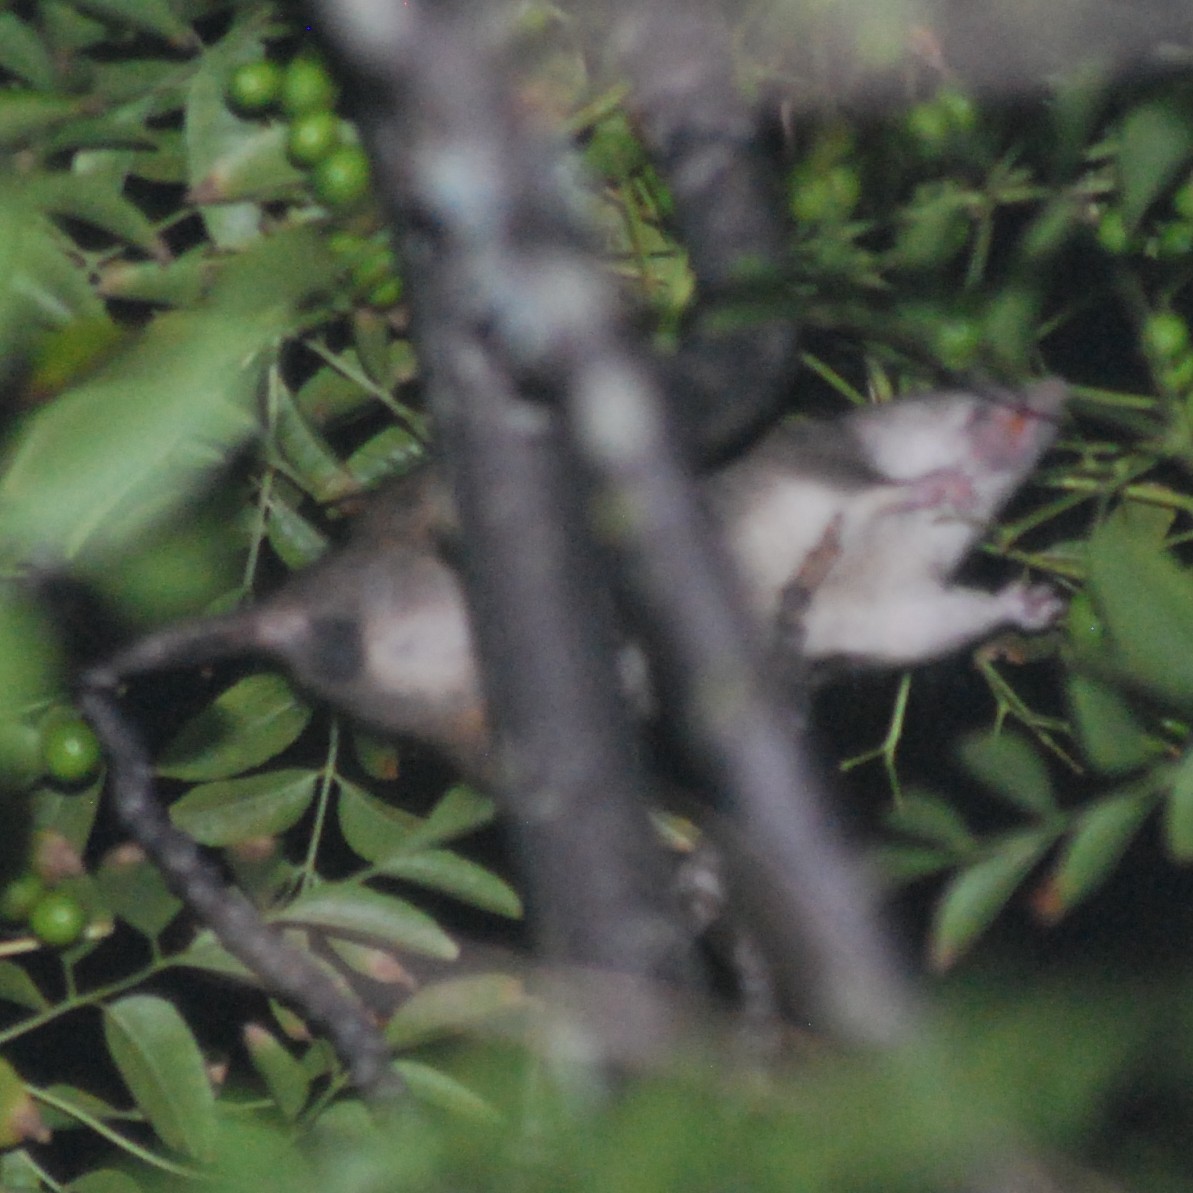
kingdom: Animalia
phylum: Chordata
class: Mammalia
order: Rodentia
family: Muridae
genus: Rattus
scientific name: Rattus rattus
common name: Black rat
